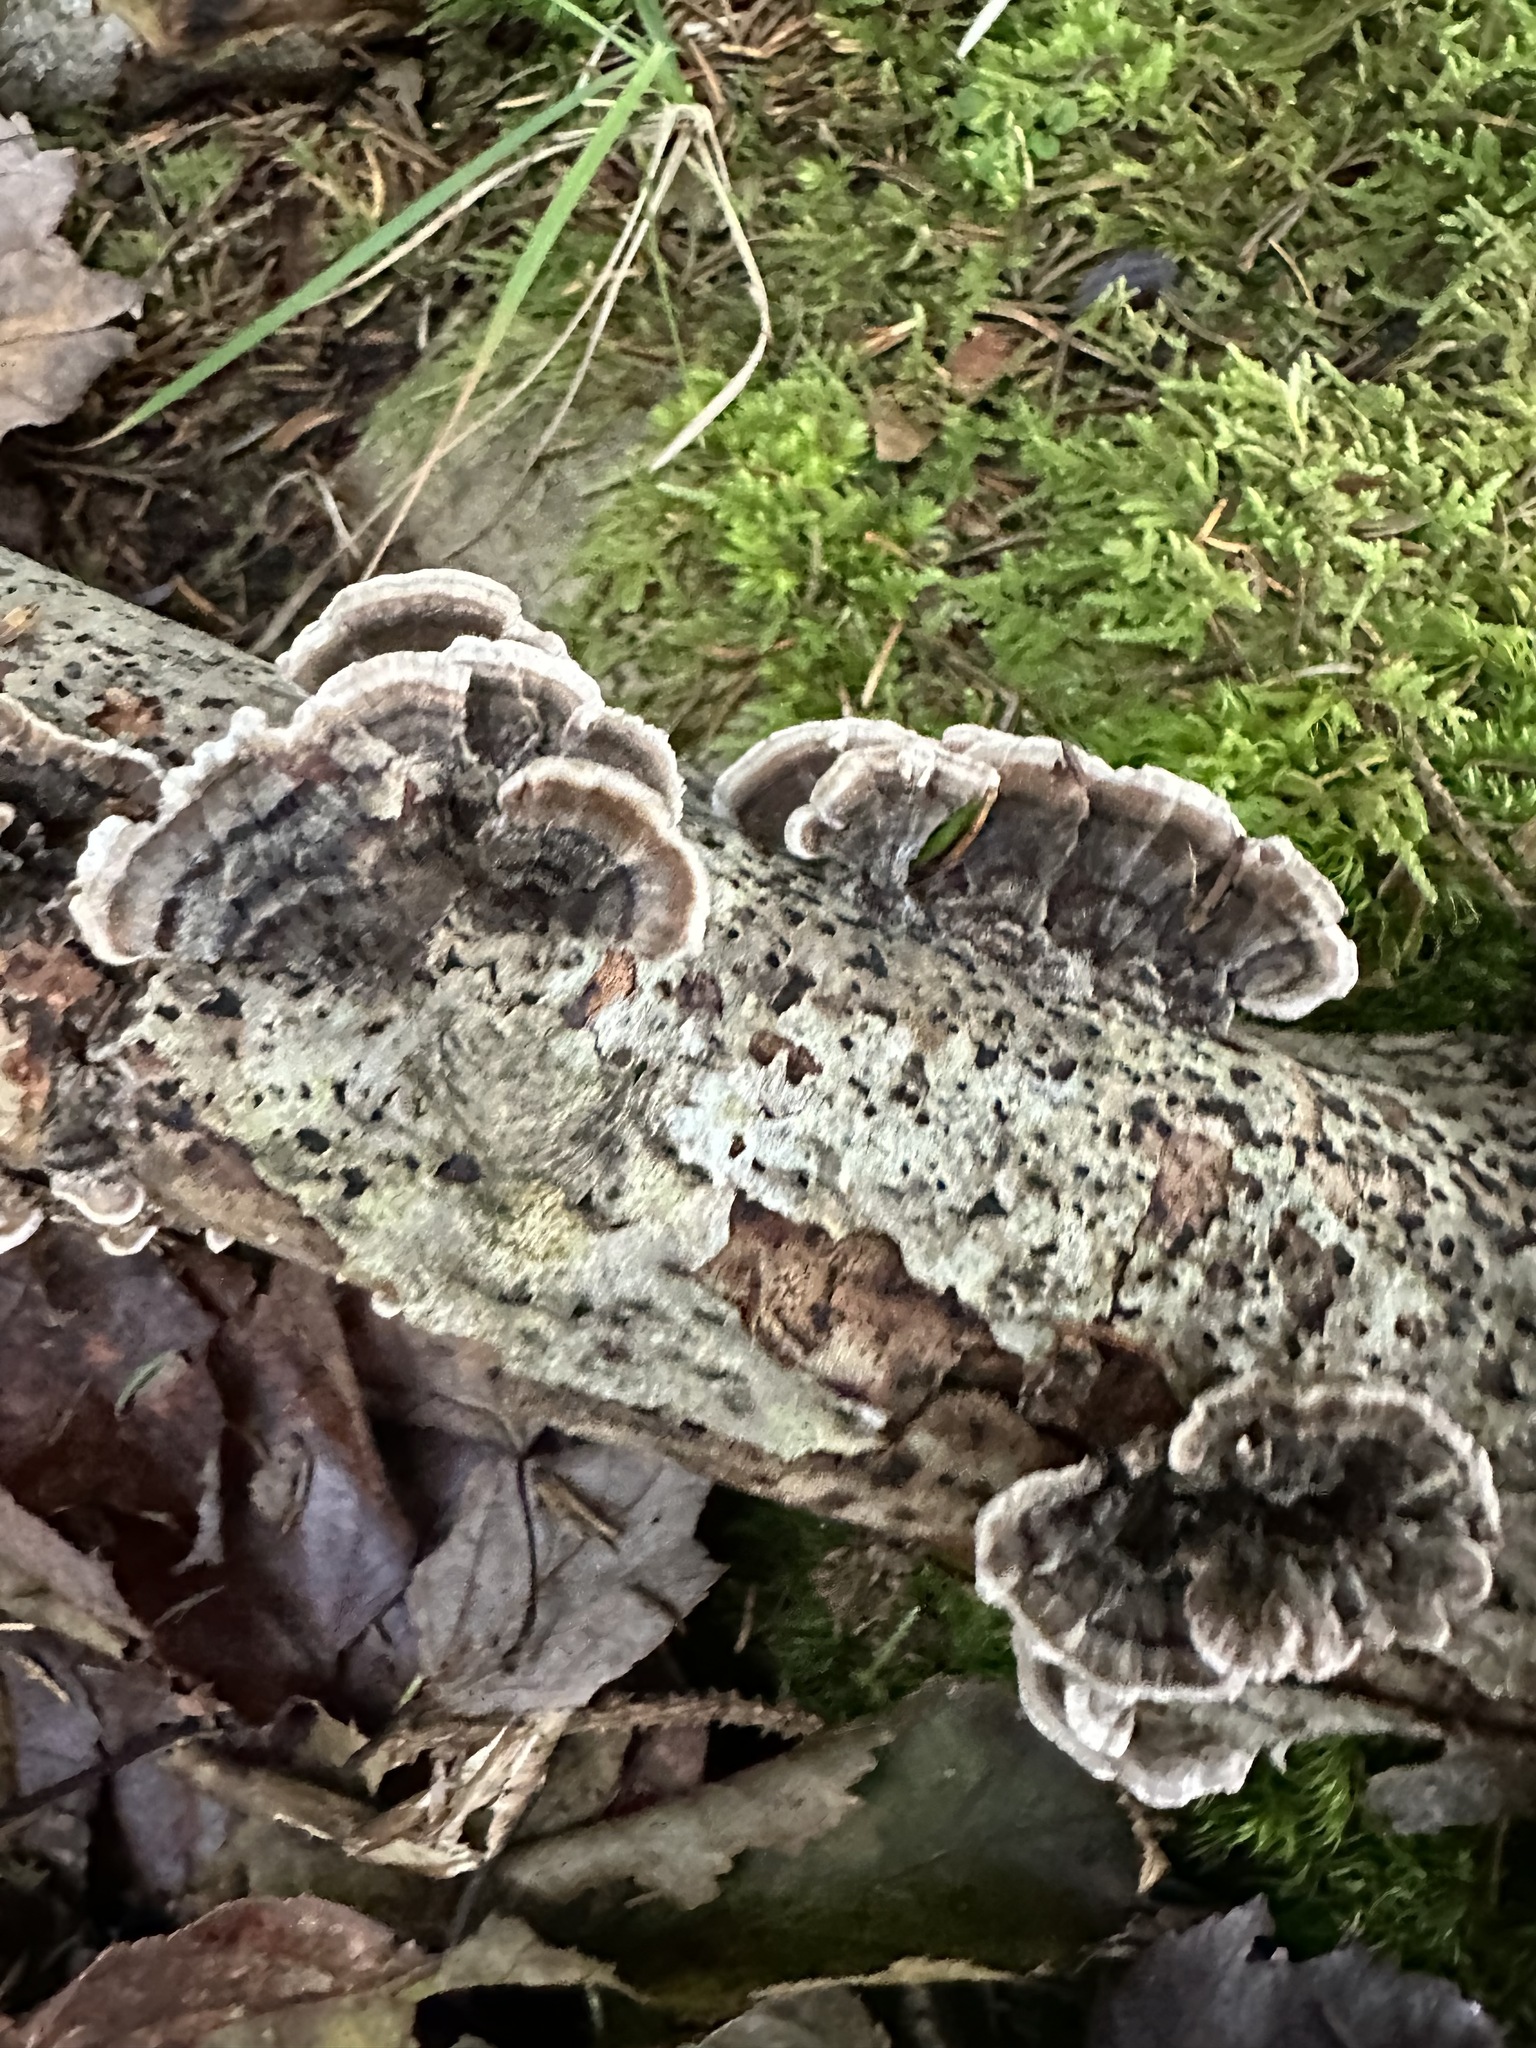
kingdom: Fungi
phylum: Basidiomycota
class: Agaricomycetes
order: Polyporales
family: Polyporaceae
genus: Trametes
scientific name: Trametes versicolor
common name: Turkeytail
